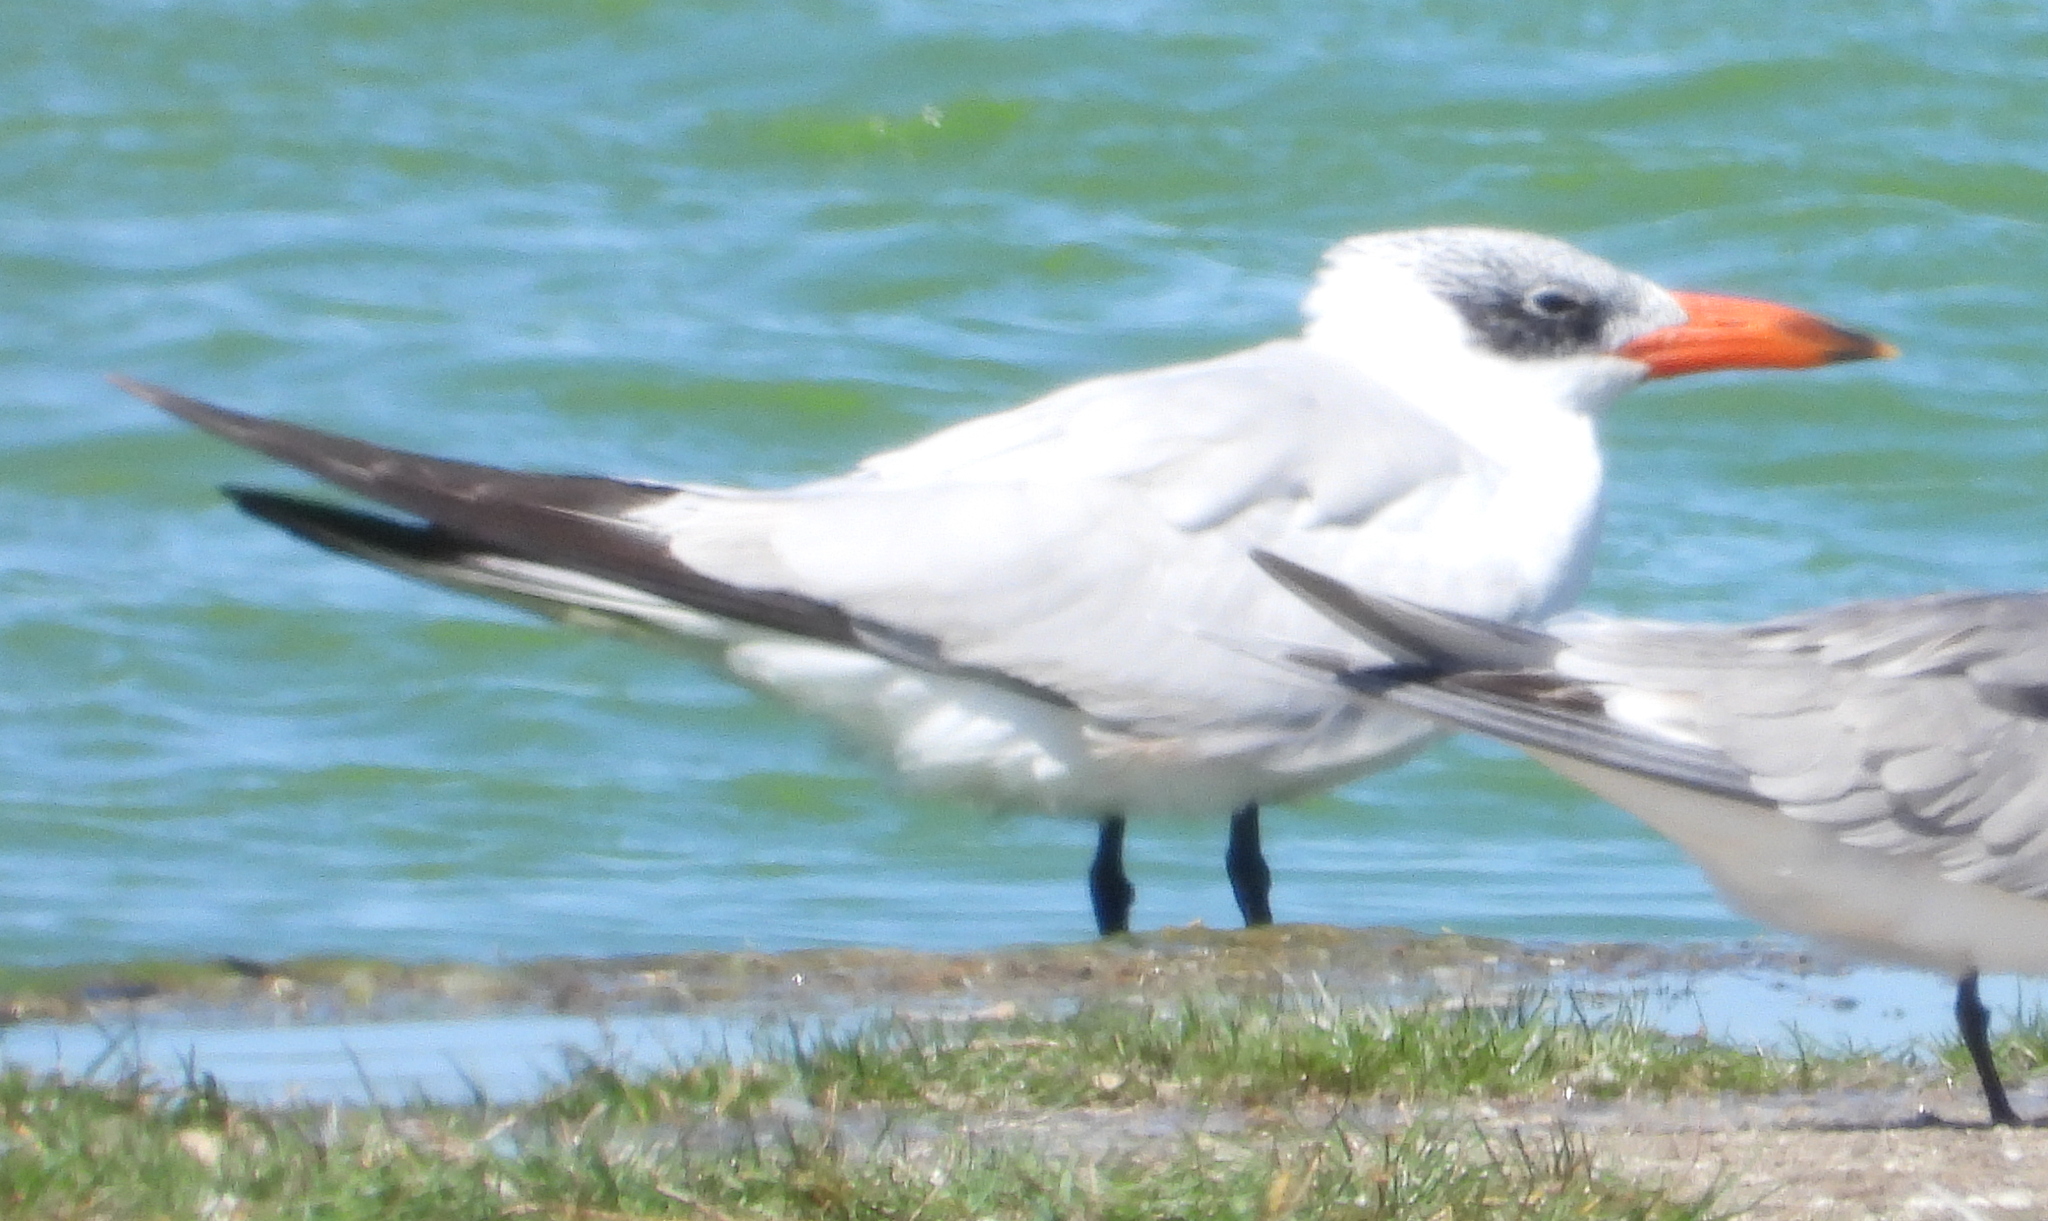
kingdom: Animalia
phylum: Chordata
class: Aves
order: Charadriiformes
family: Laridae
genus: Hydroprogne
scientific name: Hydroprogne caspia
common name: Caspian tern
